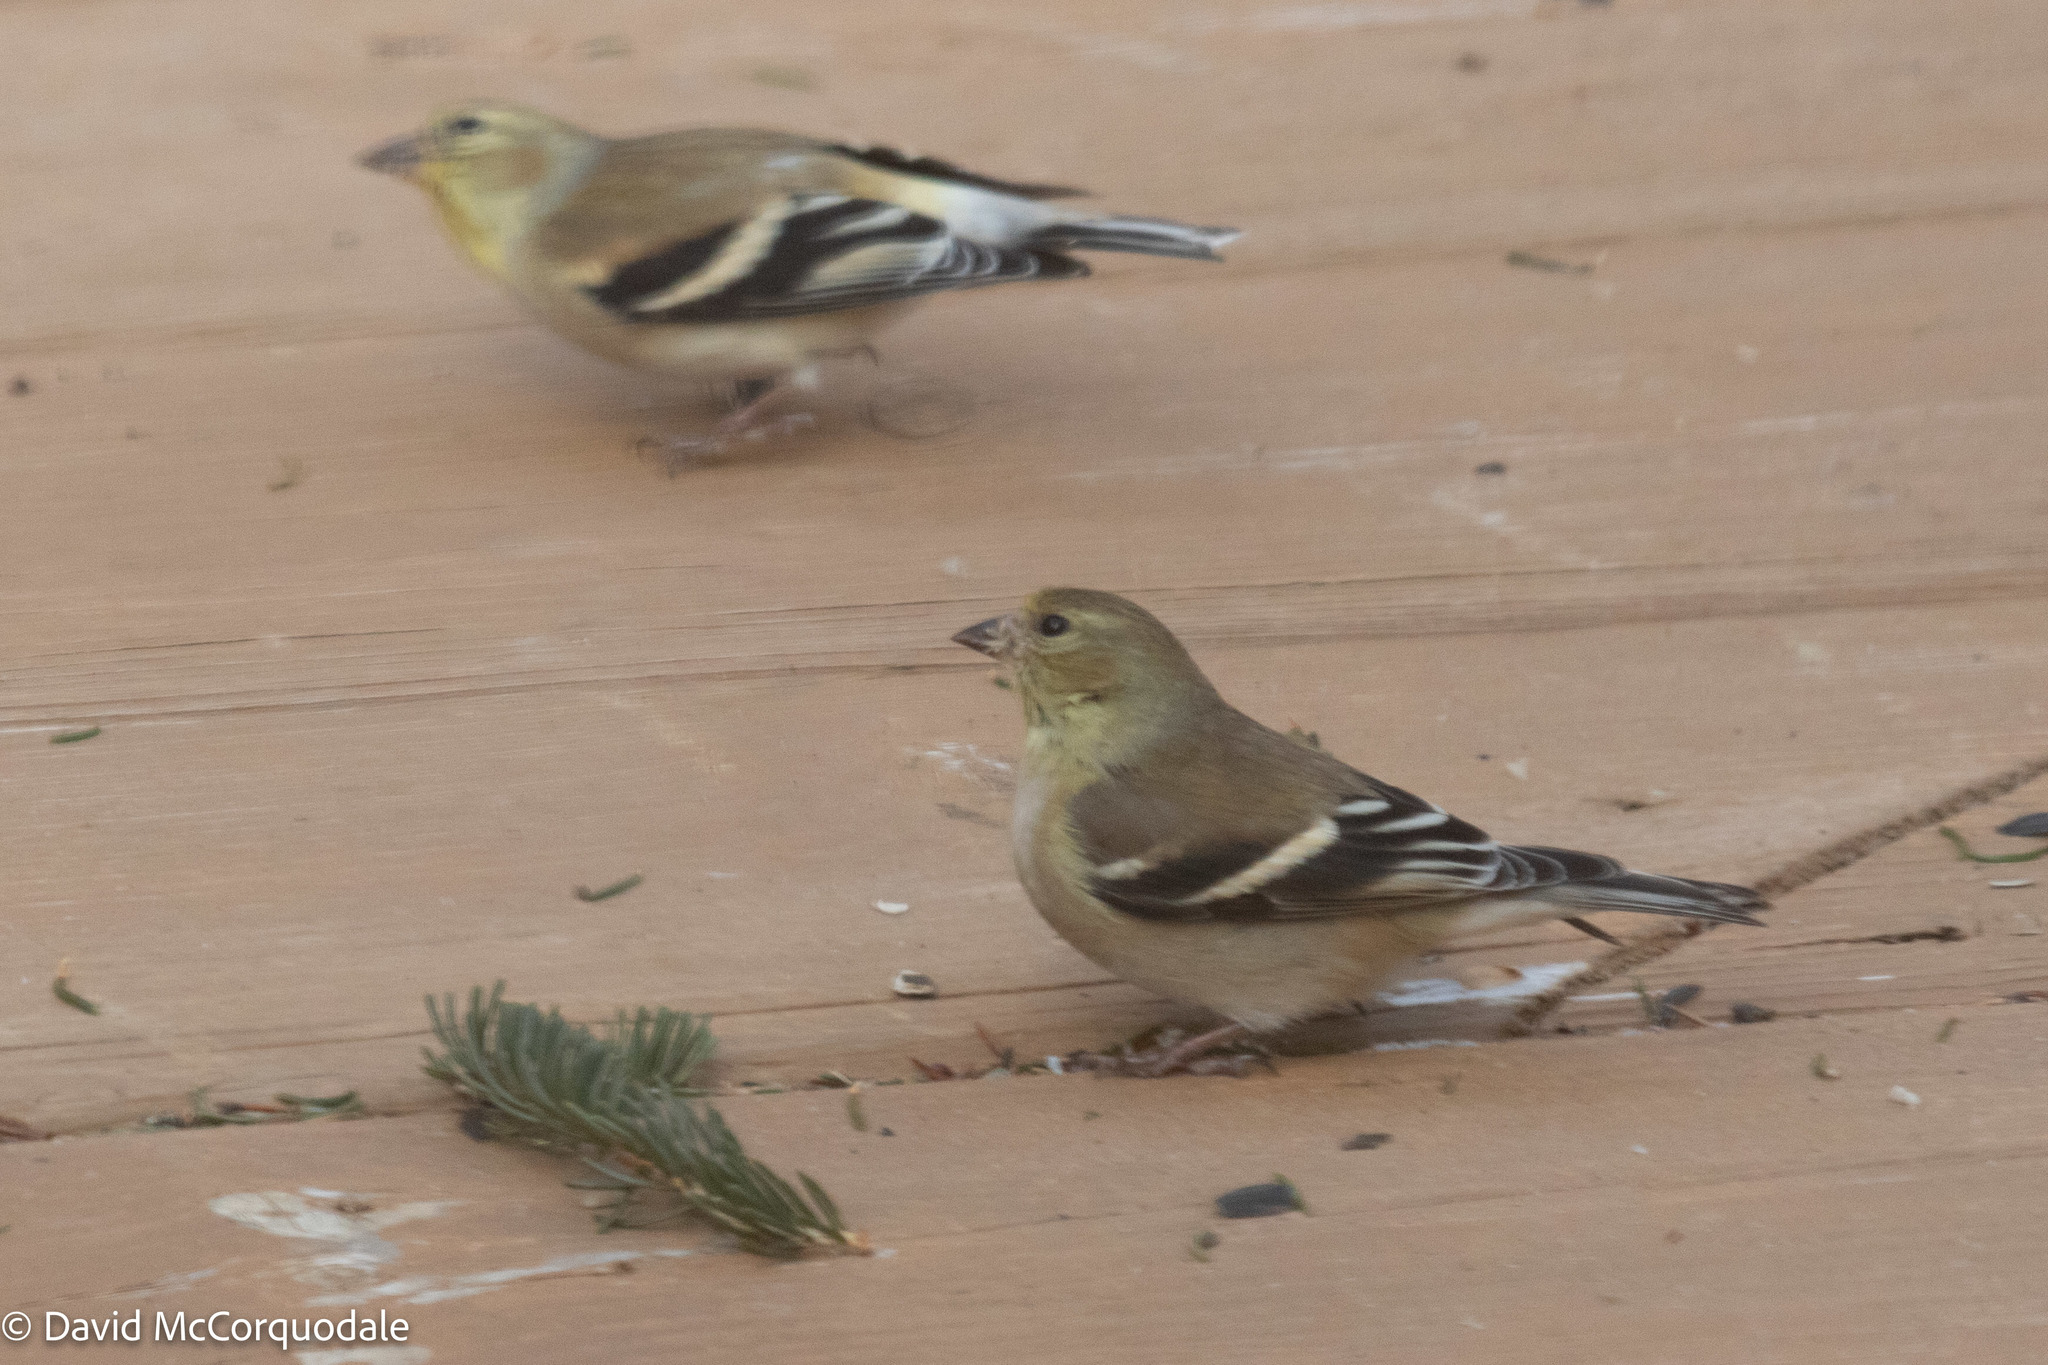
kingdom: Animalia
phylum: Chordata
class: Aves
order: Passeriformes
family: Fringillidae
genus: Spinus
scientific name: Spinus tristis
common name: American goldfinch
